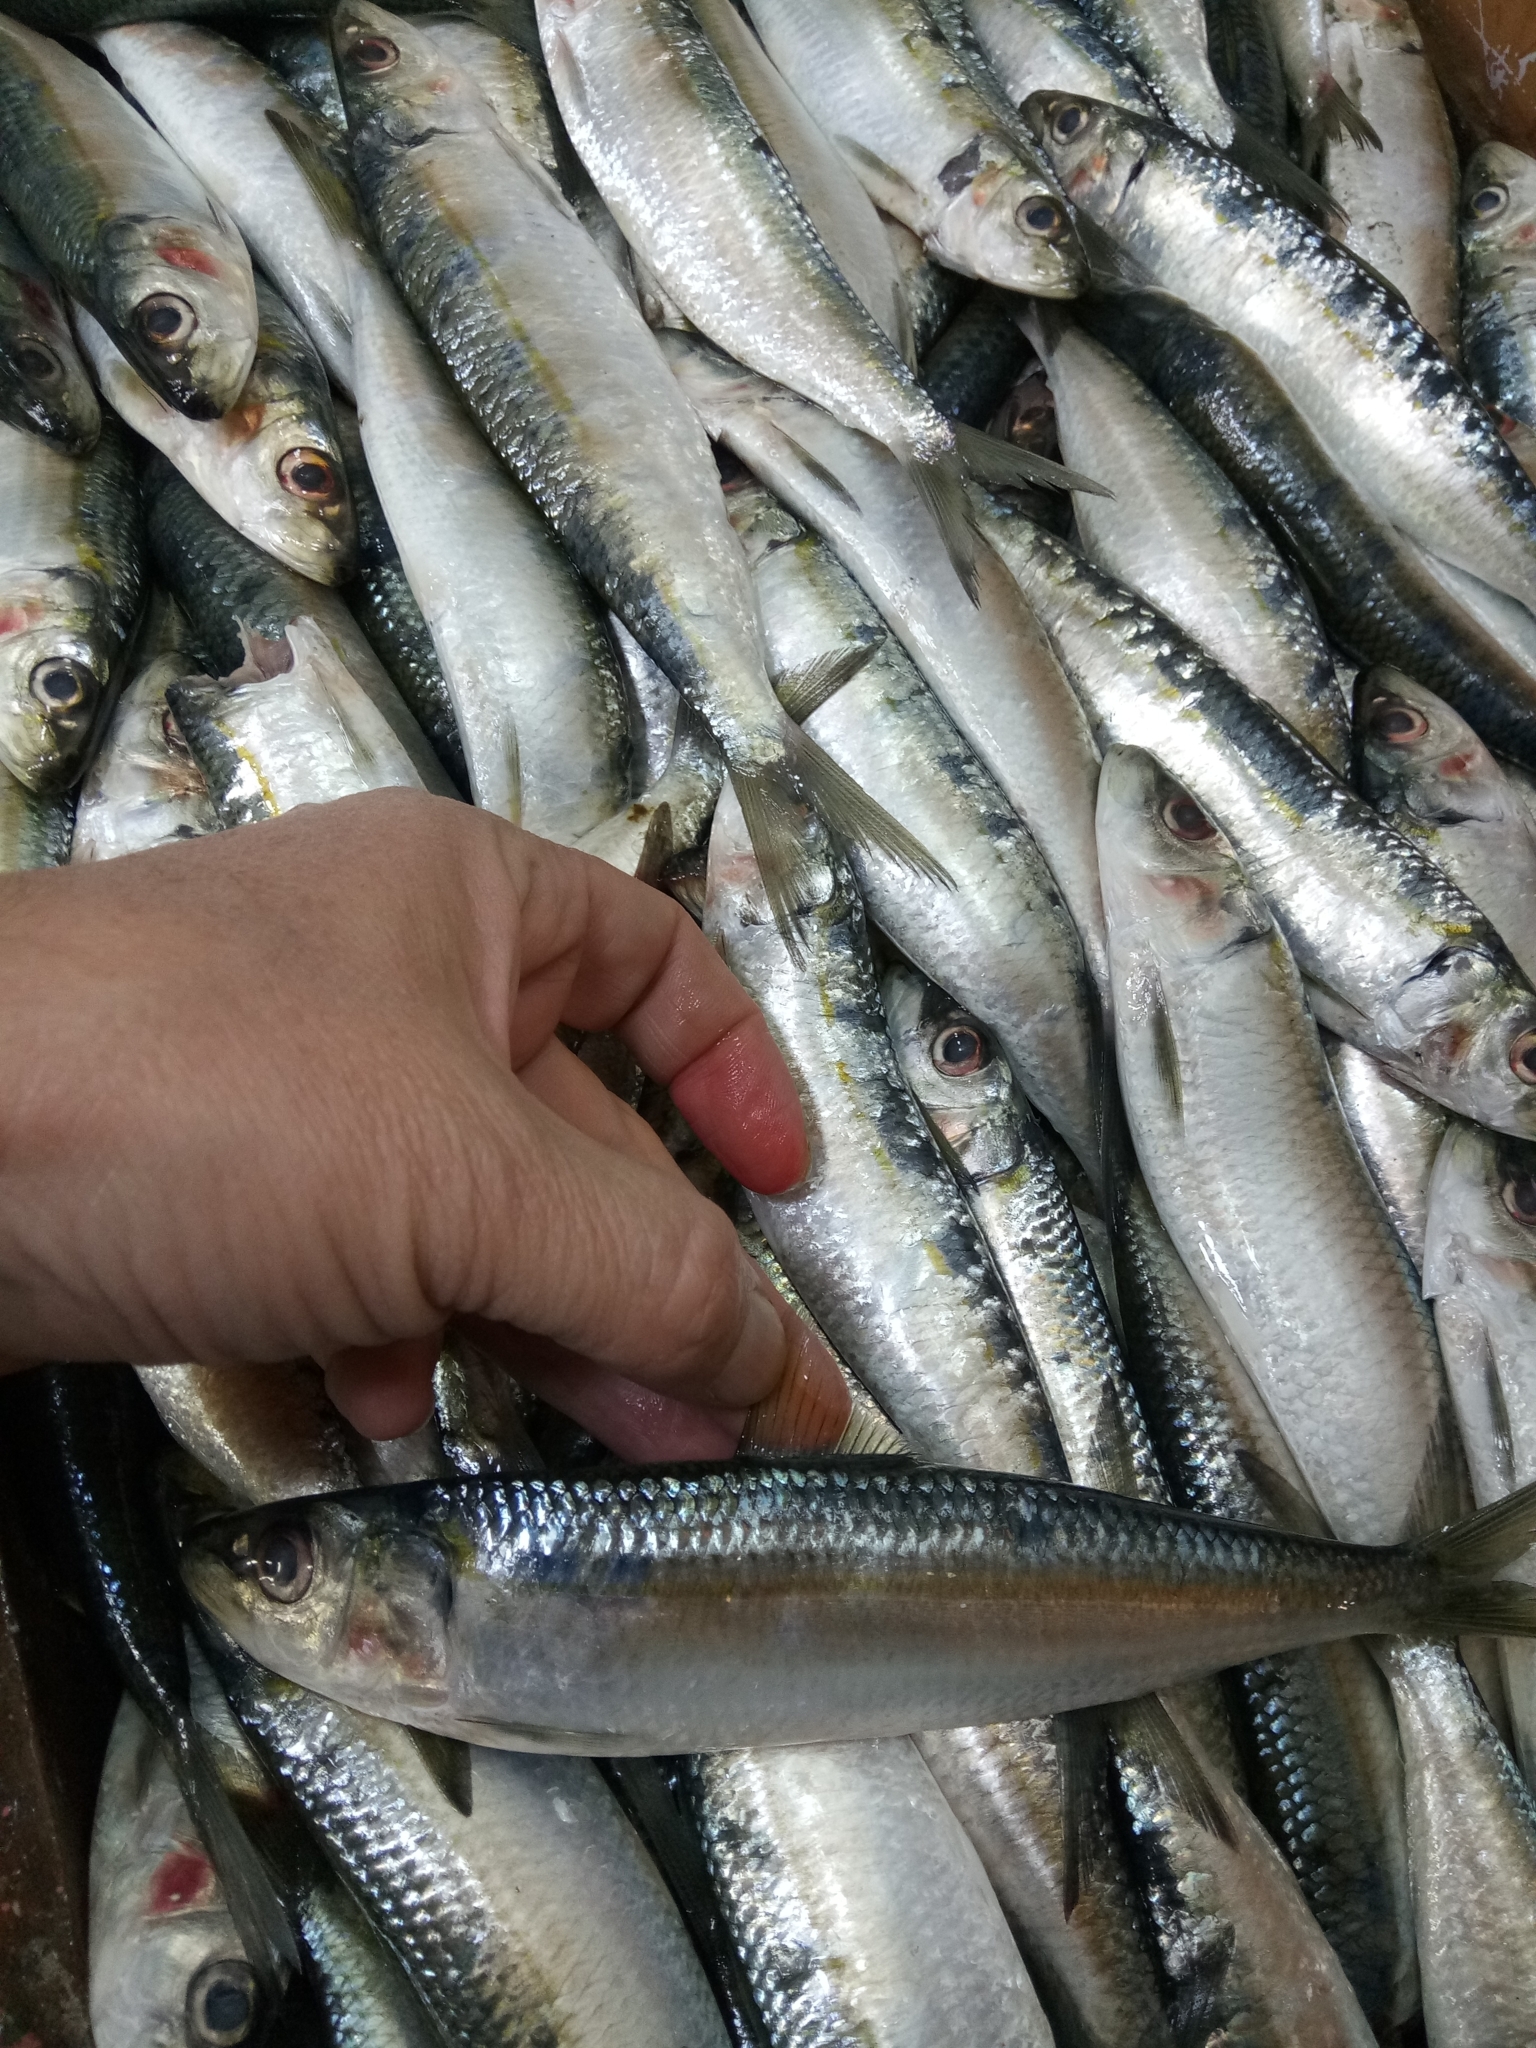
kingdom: Animalia
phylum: Chordata
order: Clupeiformes
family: Clupeidae
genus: Sardinella
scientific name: Sardinella aurita
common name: Round sardinella
